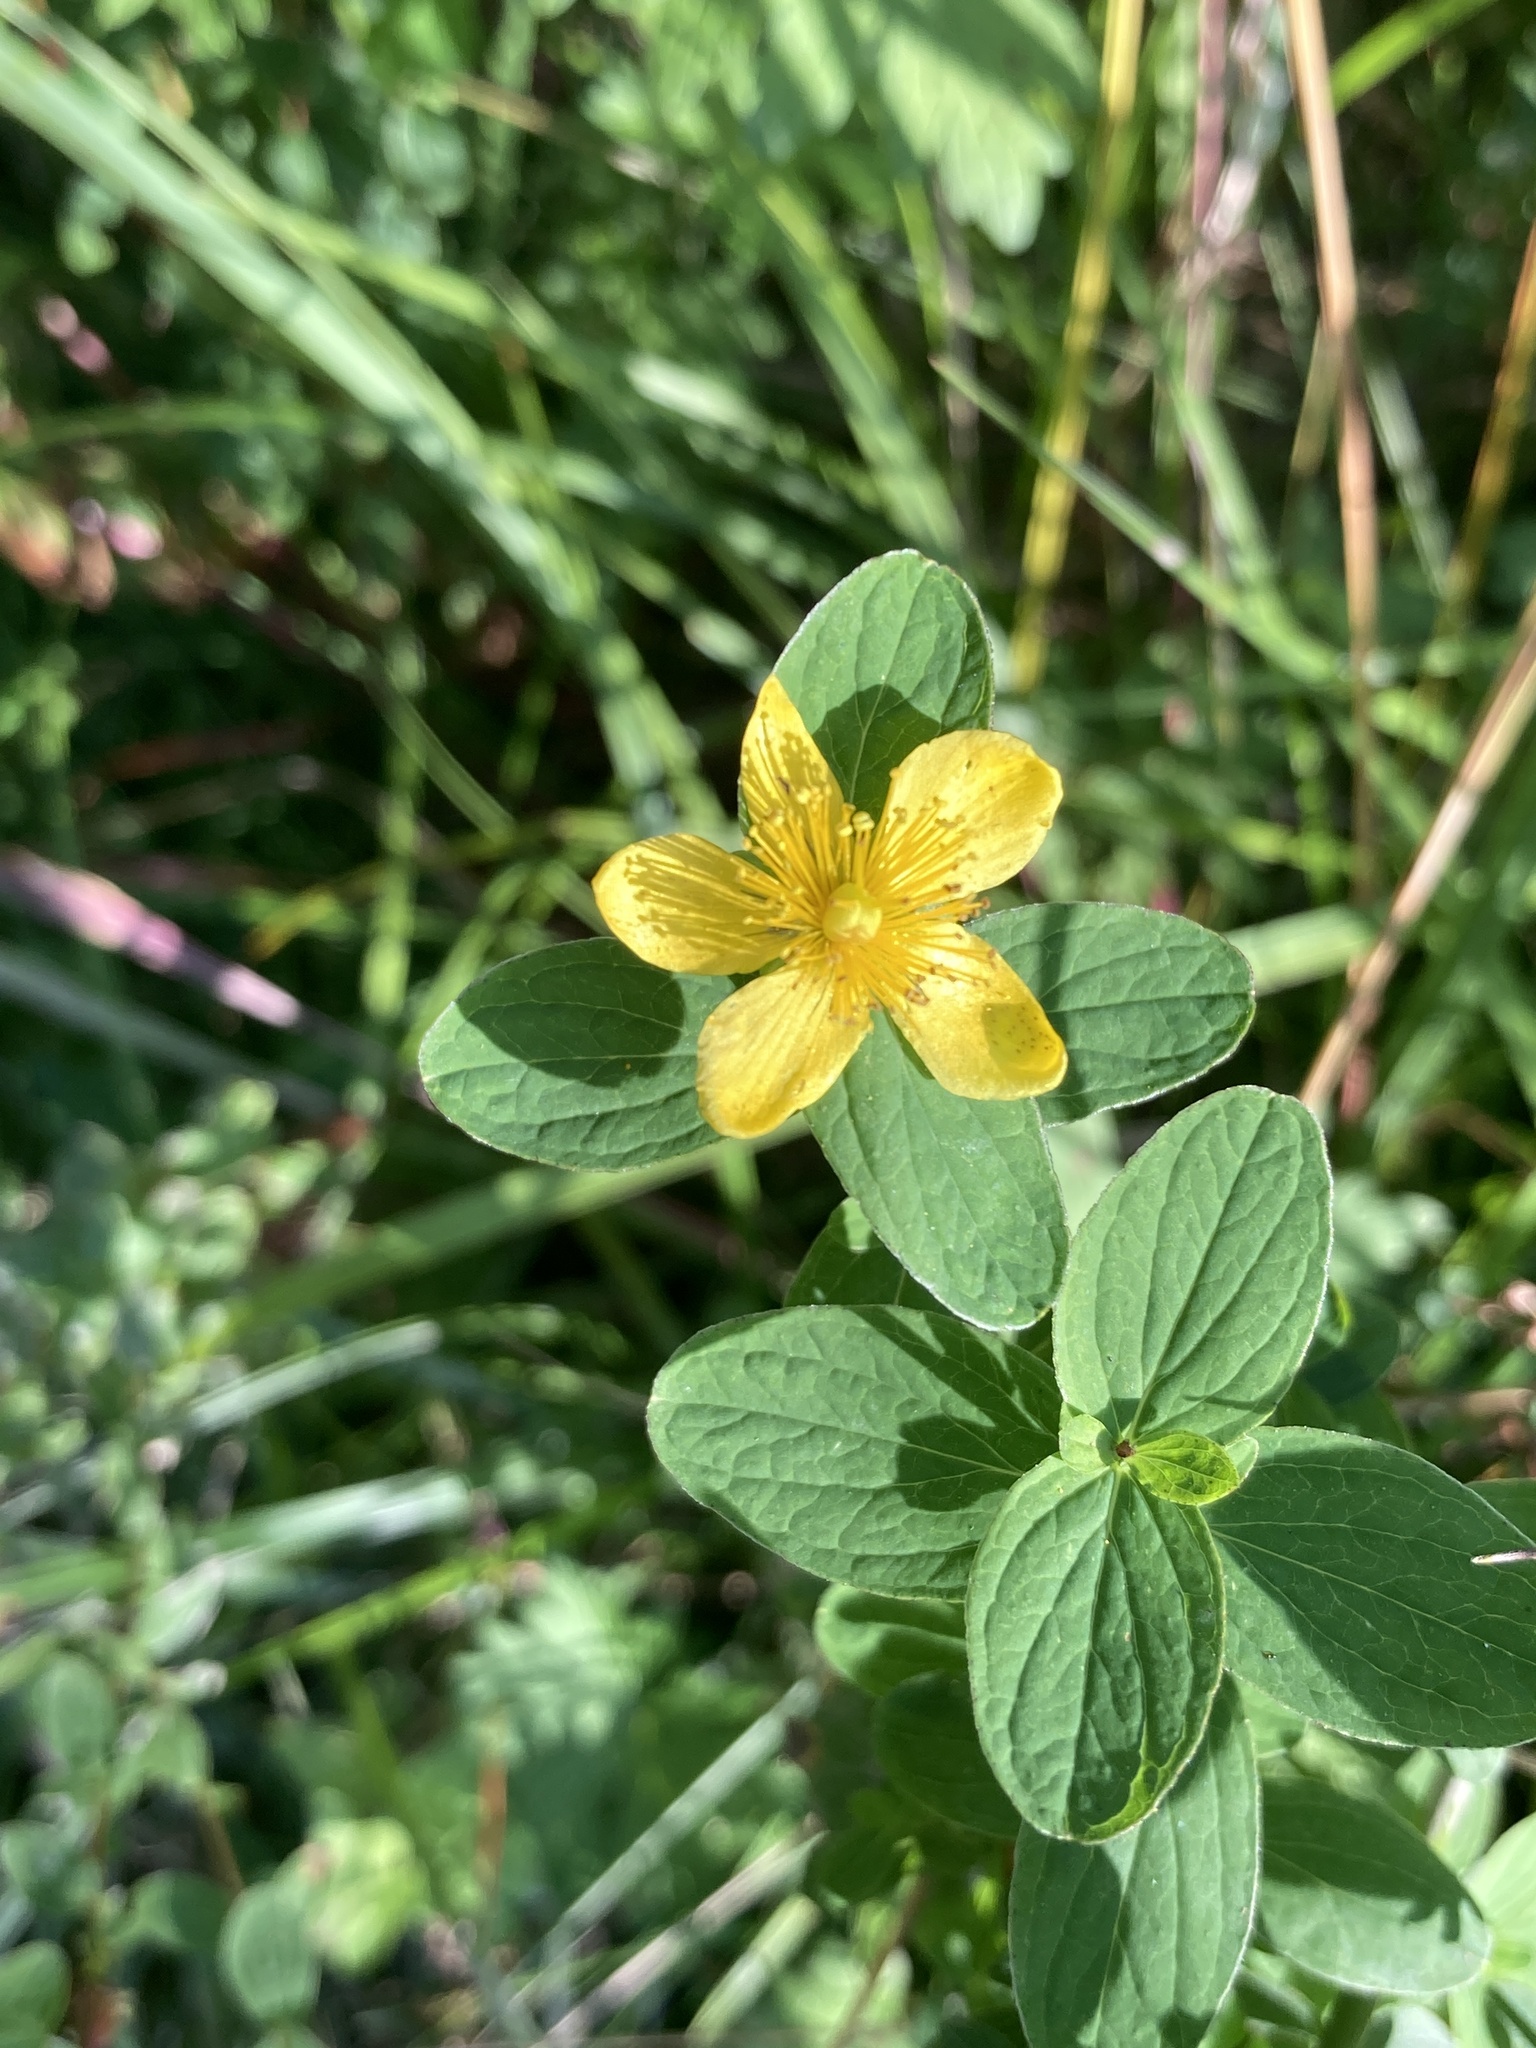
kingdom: Plantae
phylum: Tracheophyta
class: Magnoliopsida
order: Malpighiales
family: Hypericaceae
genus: Hypericum
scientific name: Hypericum maculatum
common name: Imperforate st. john's-wort
